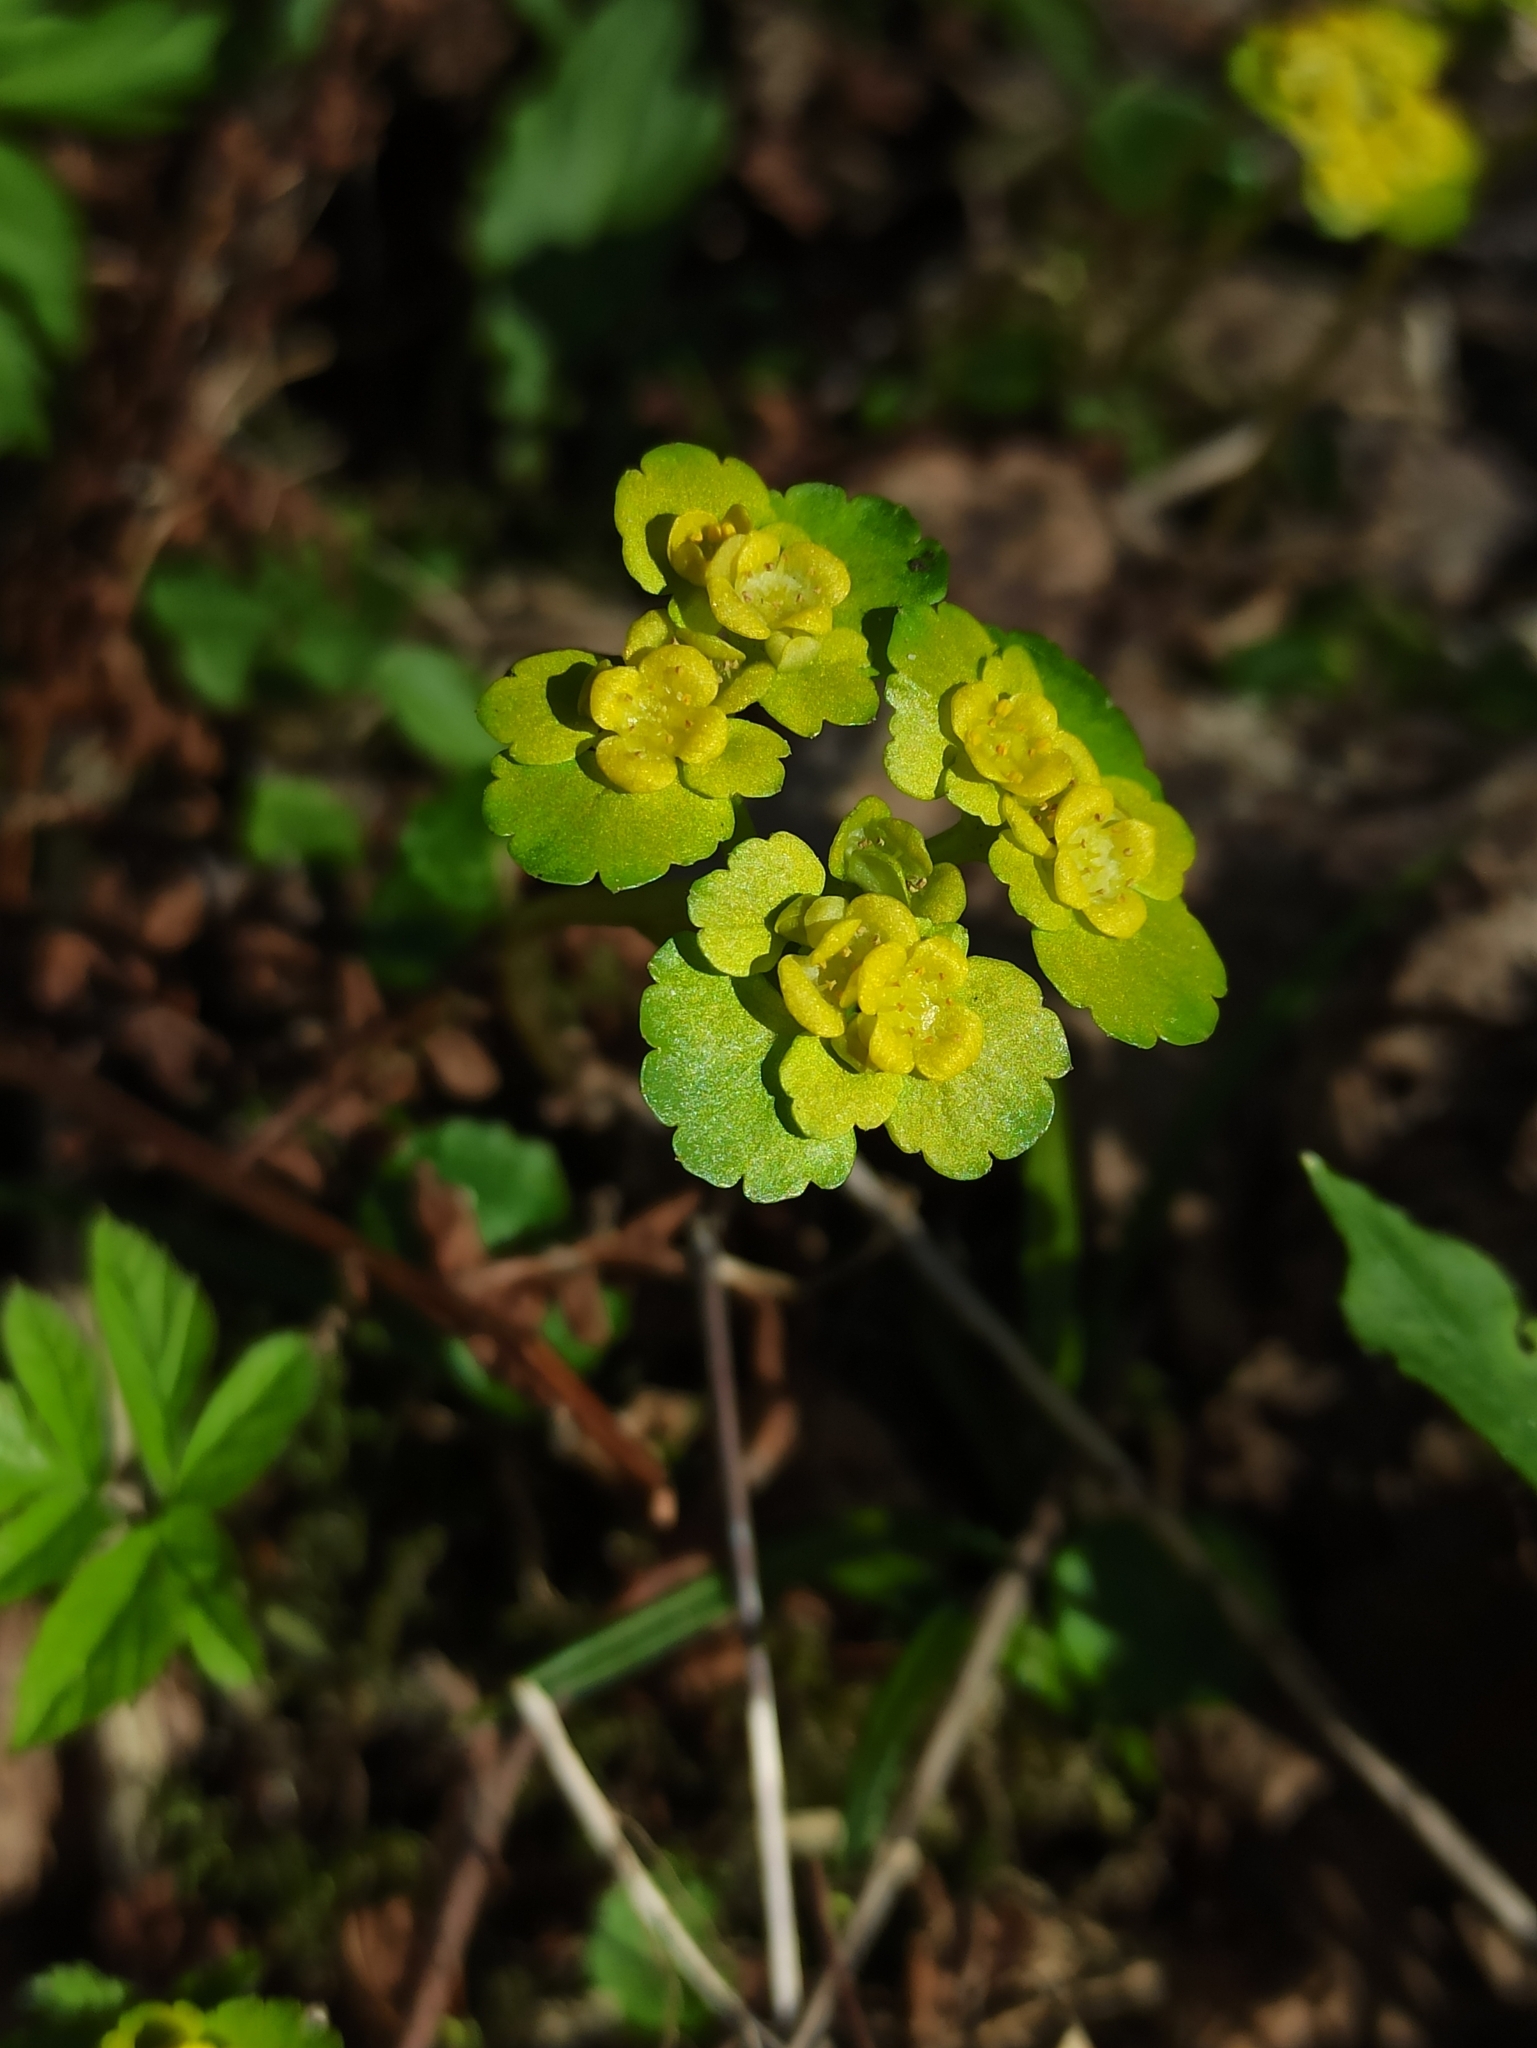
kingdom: Plantae
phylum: Tracheophyta
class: Magnoliopsida
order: Saxifragales
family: Saxifragaceae
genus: Chrysosplenium
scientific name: Chrysosplenium alternifolium
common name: Alternate-leaved golden-saxifrage
